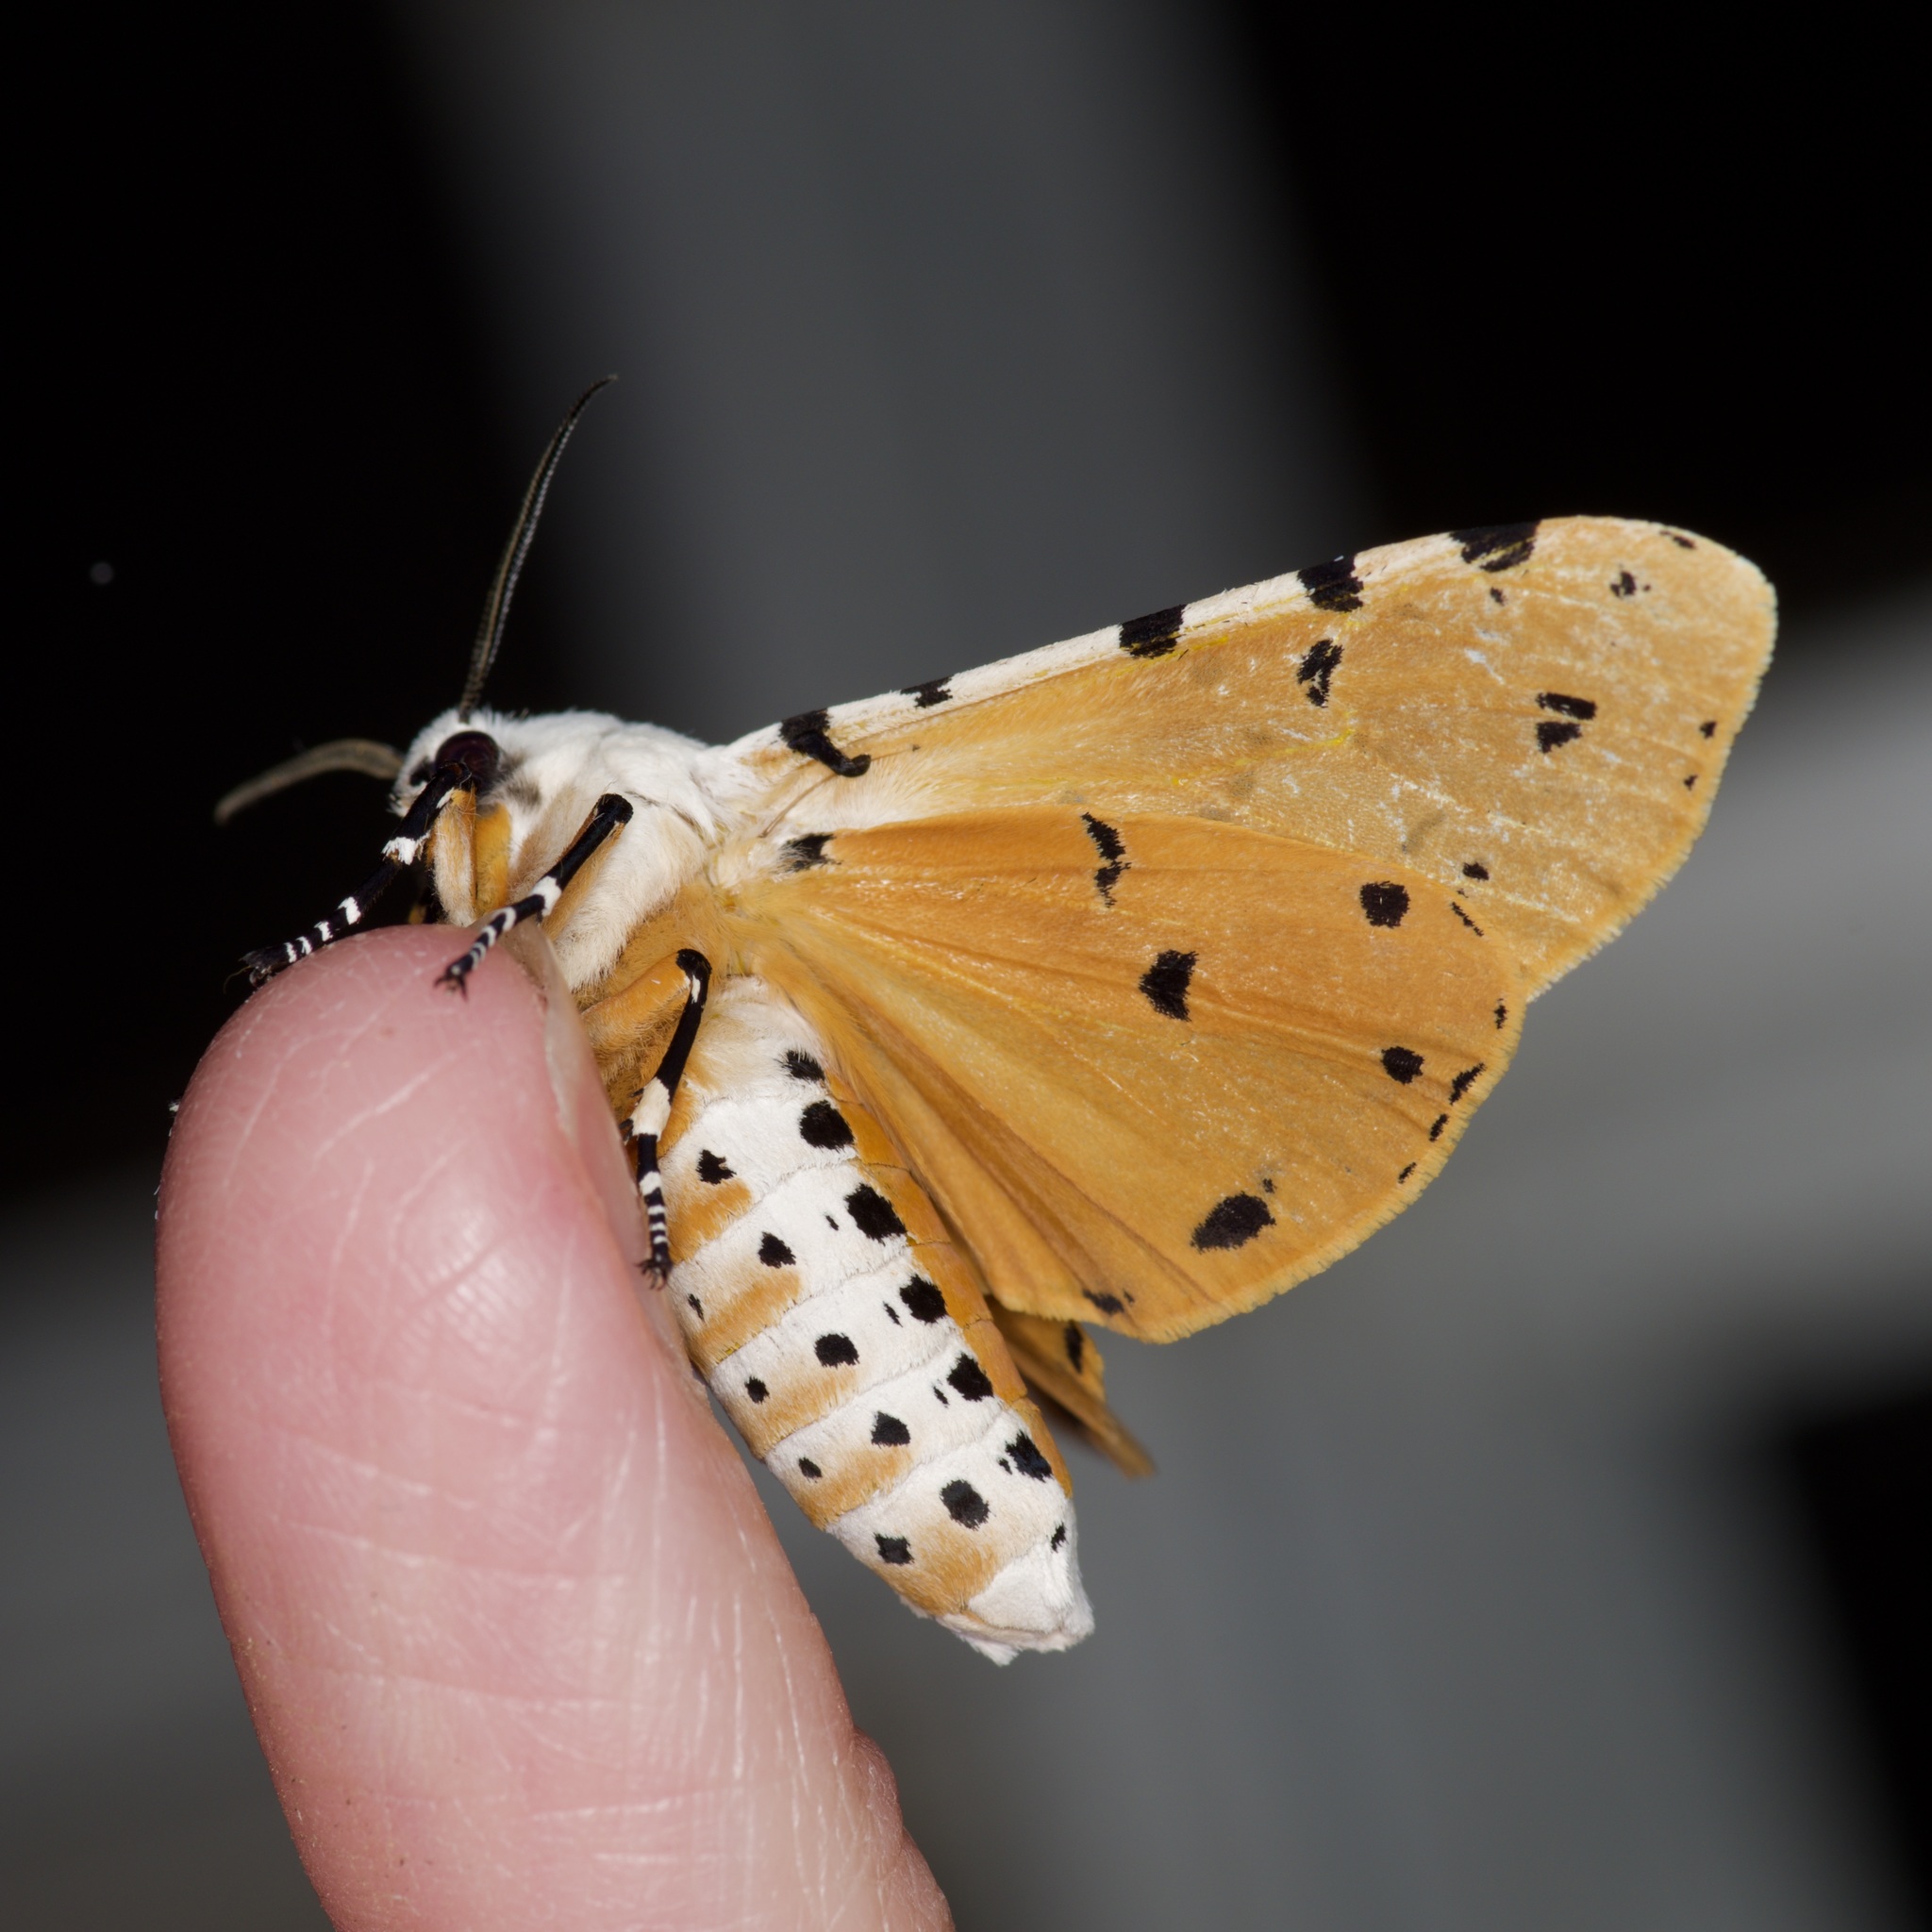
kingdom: Animalia
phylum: Arthropoda
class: Insecta
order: Lepidoptera
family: Erebidae
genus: Estigmene
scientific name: Estigmene acrea
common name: Salt marsh moth
